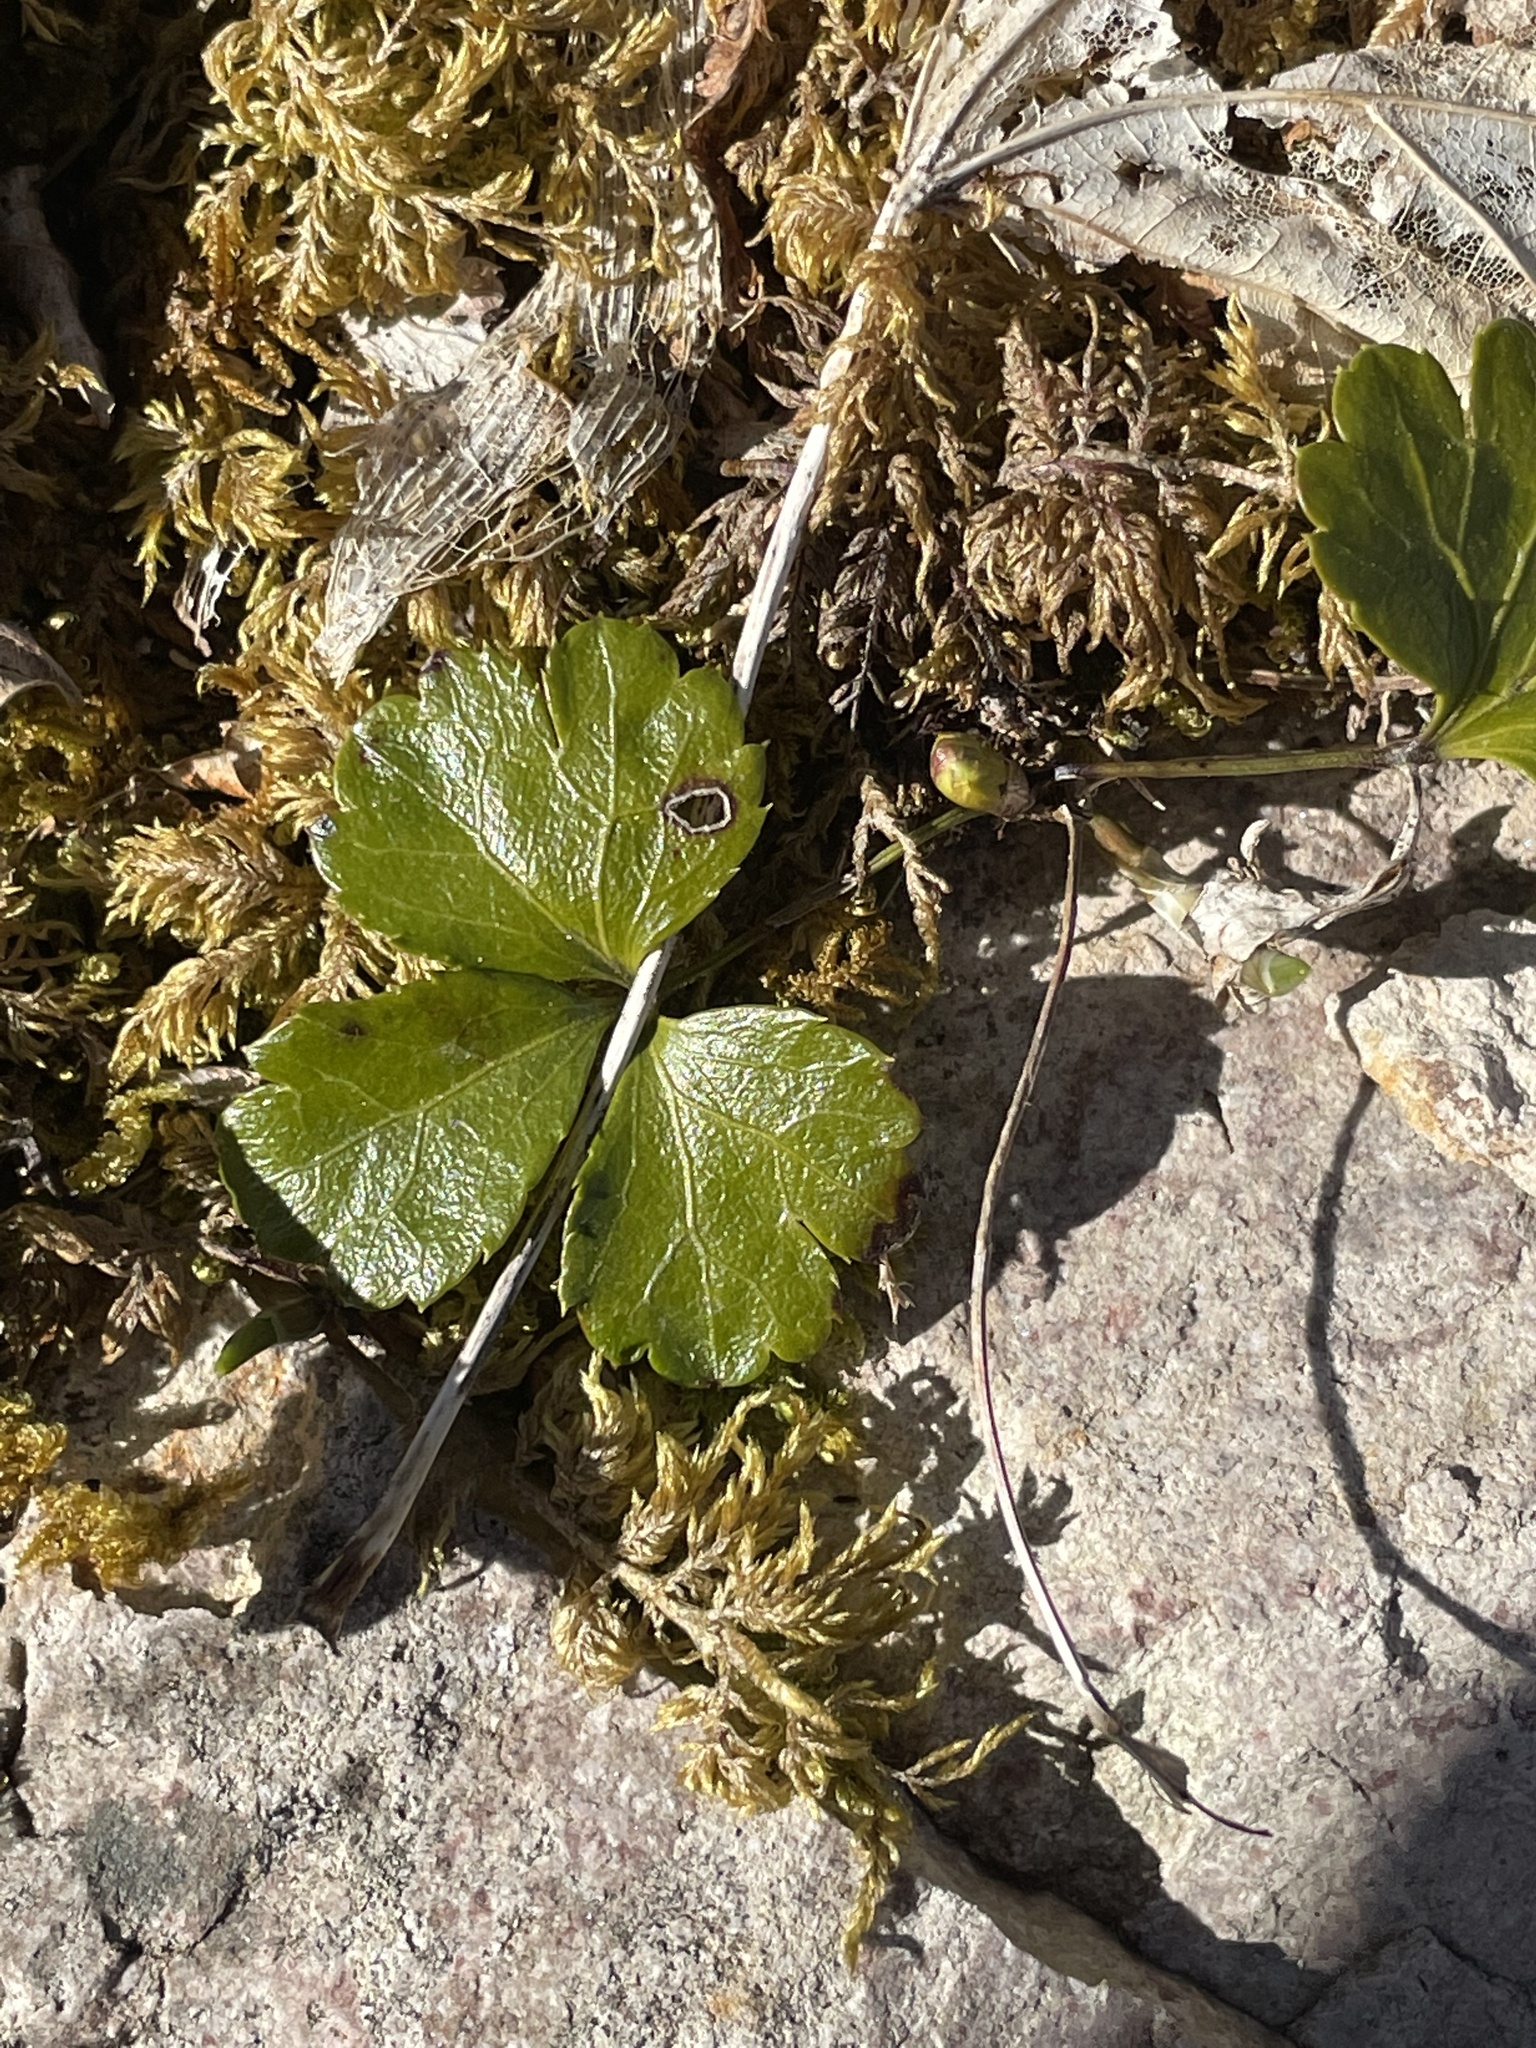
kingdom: Plantae
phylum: Tracheophyta
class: Magnoliopsida
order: Ranunculales
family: Ranunculaceae
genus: Coptis
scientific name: Coptis trifolia
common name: Canker-root
